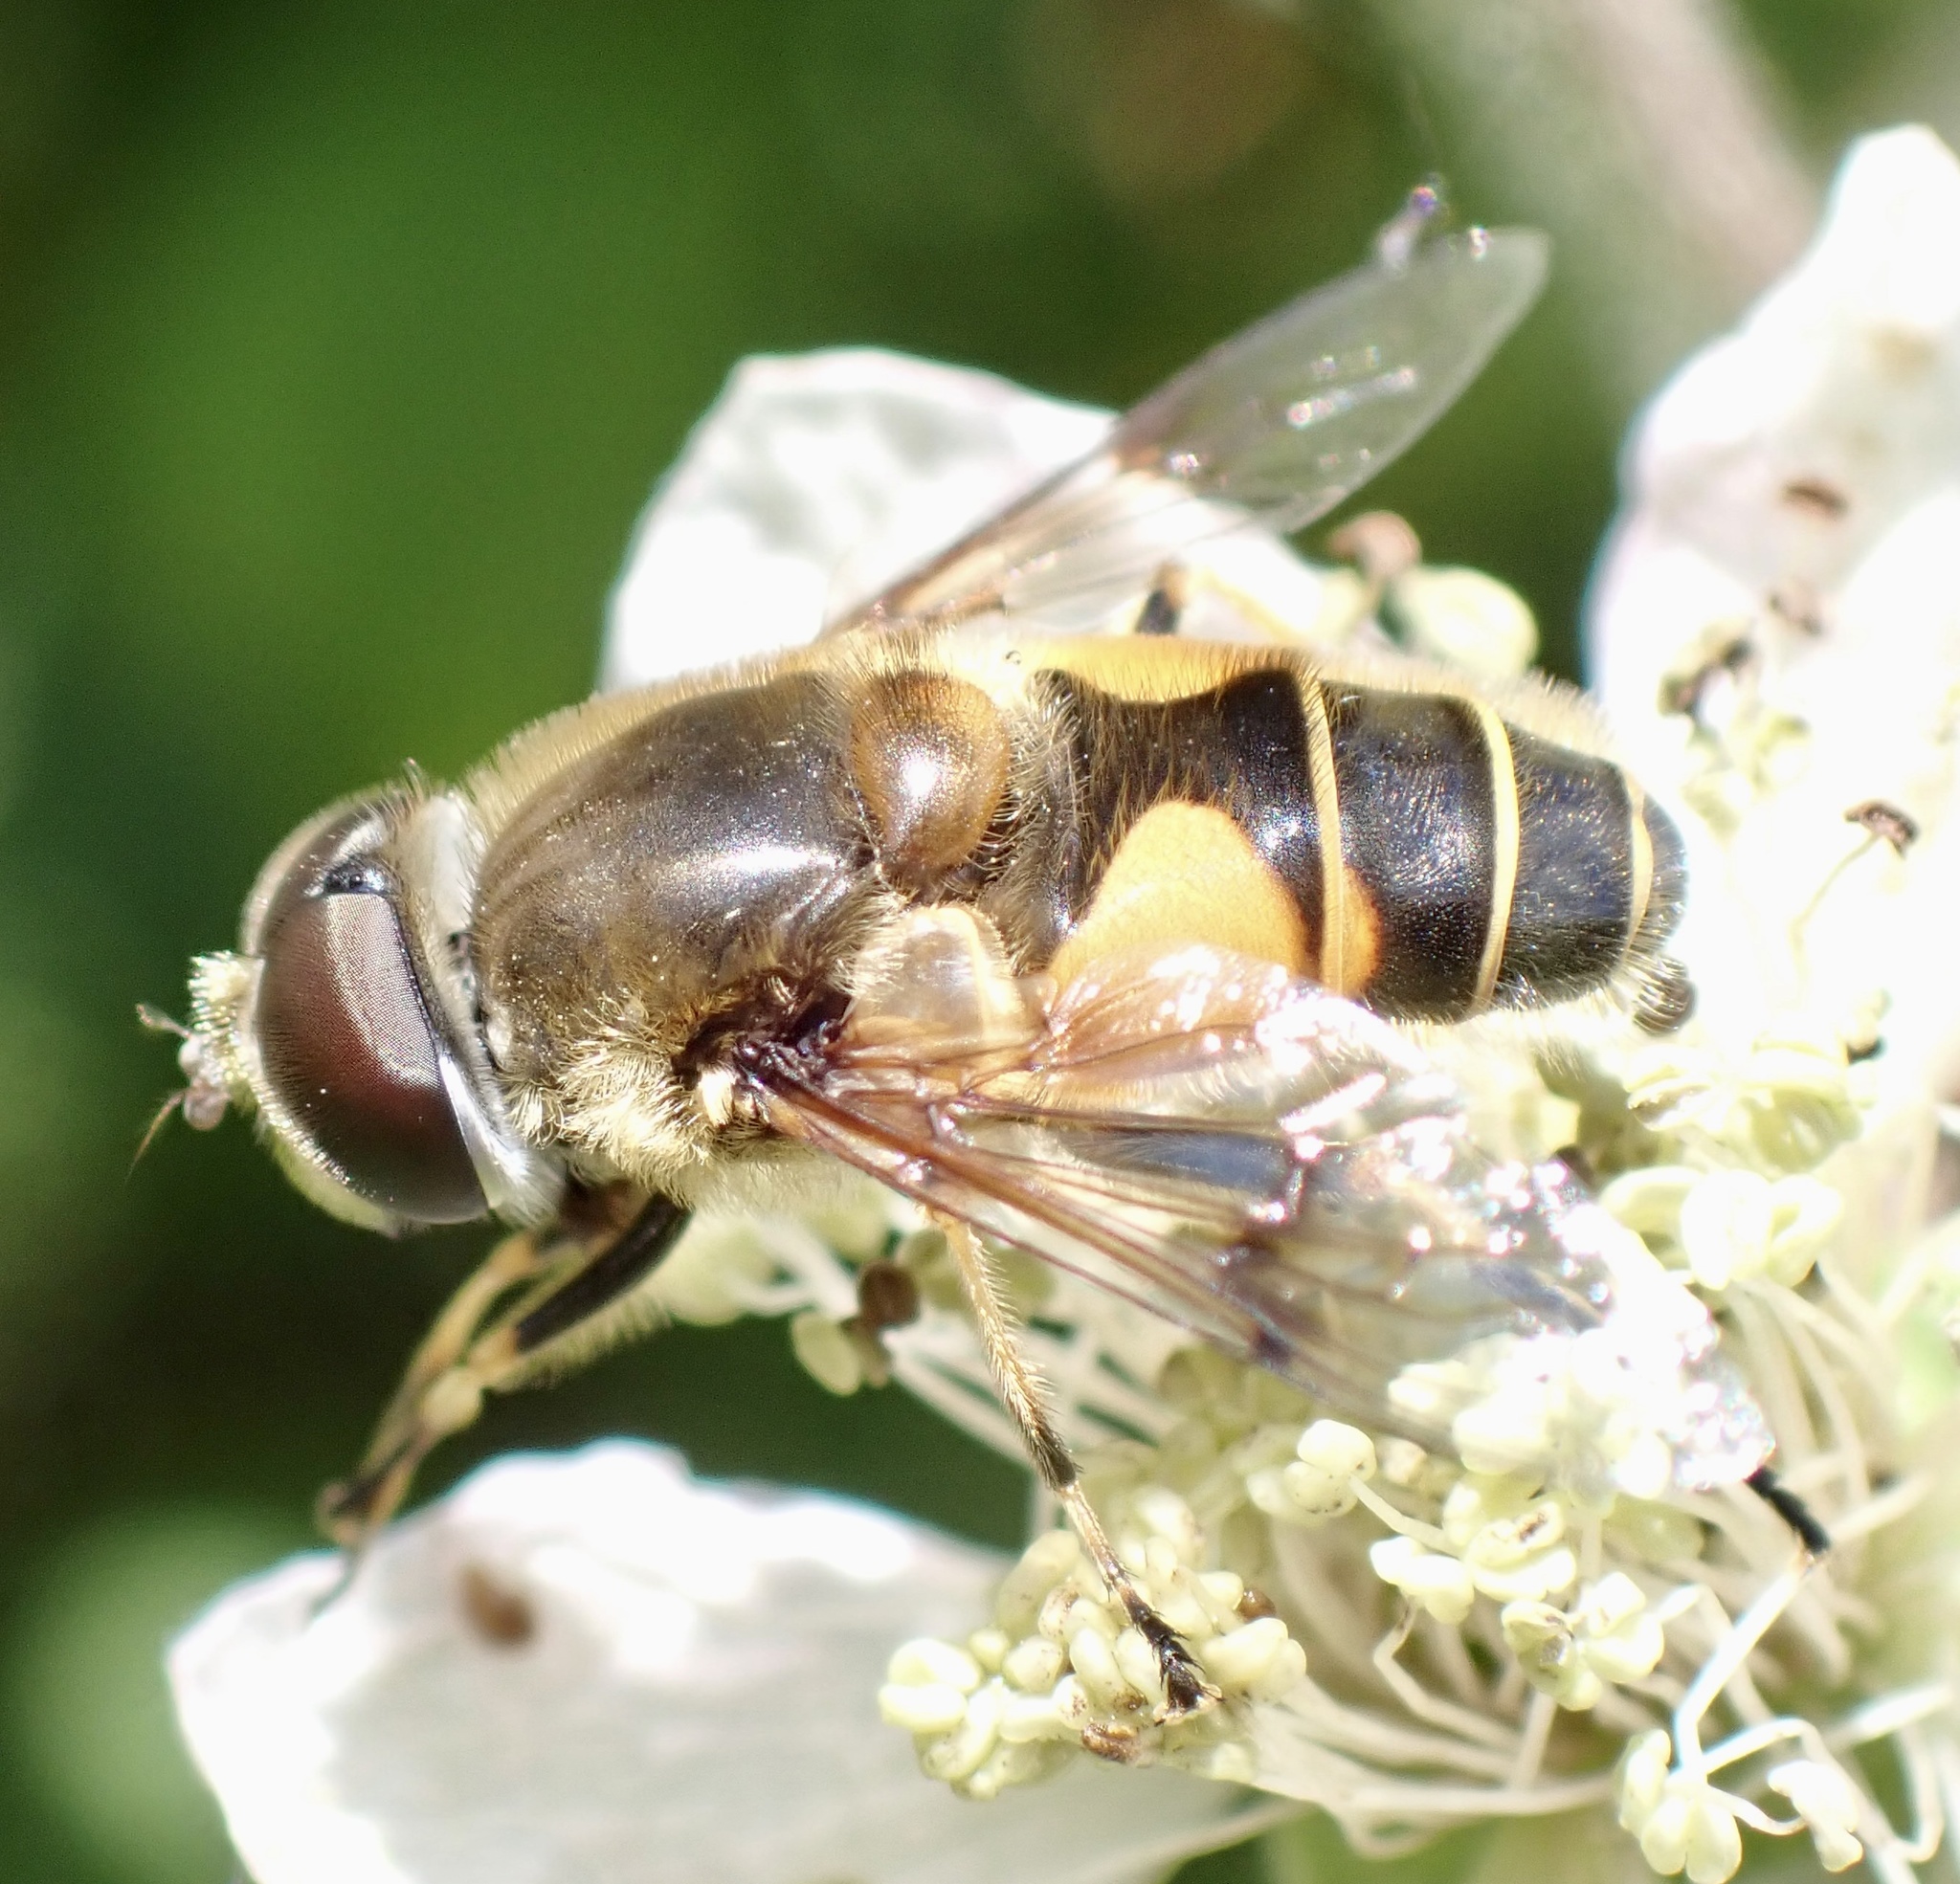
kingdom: Animalia
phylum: Arthropoda
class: Insecta
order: Diptera
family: Syrphidae
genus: Cheilosia
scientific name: Cheilosia morio
